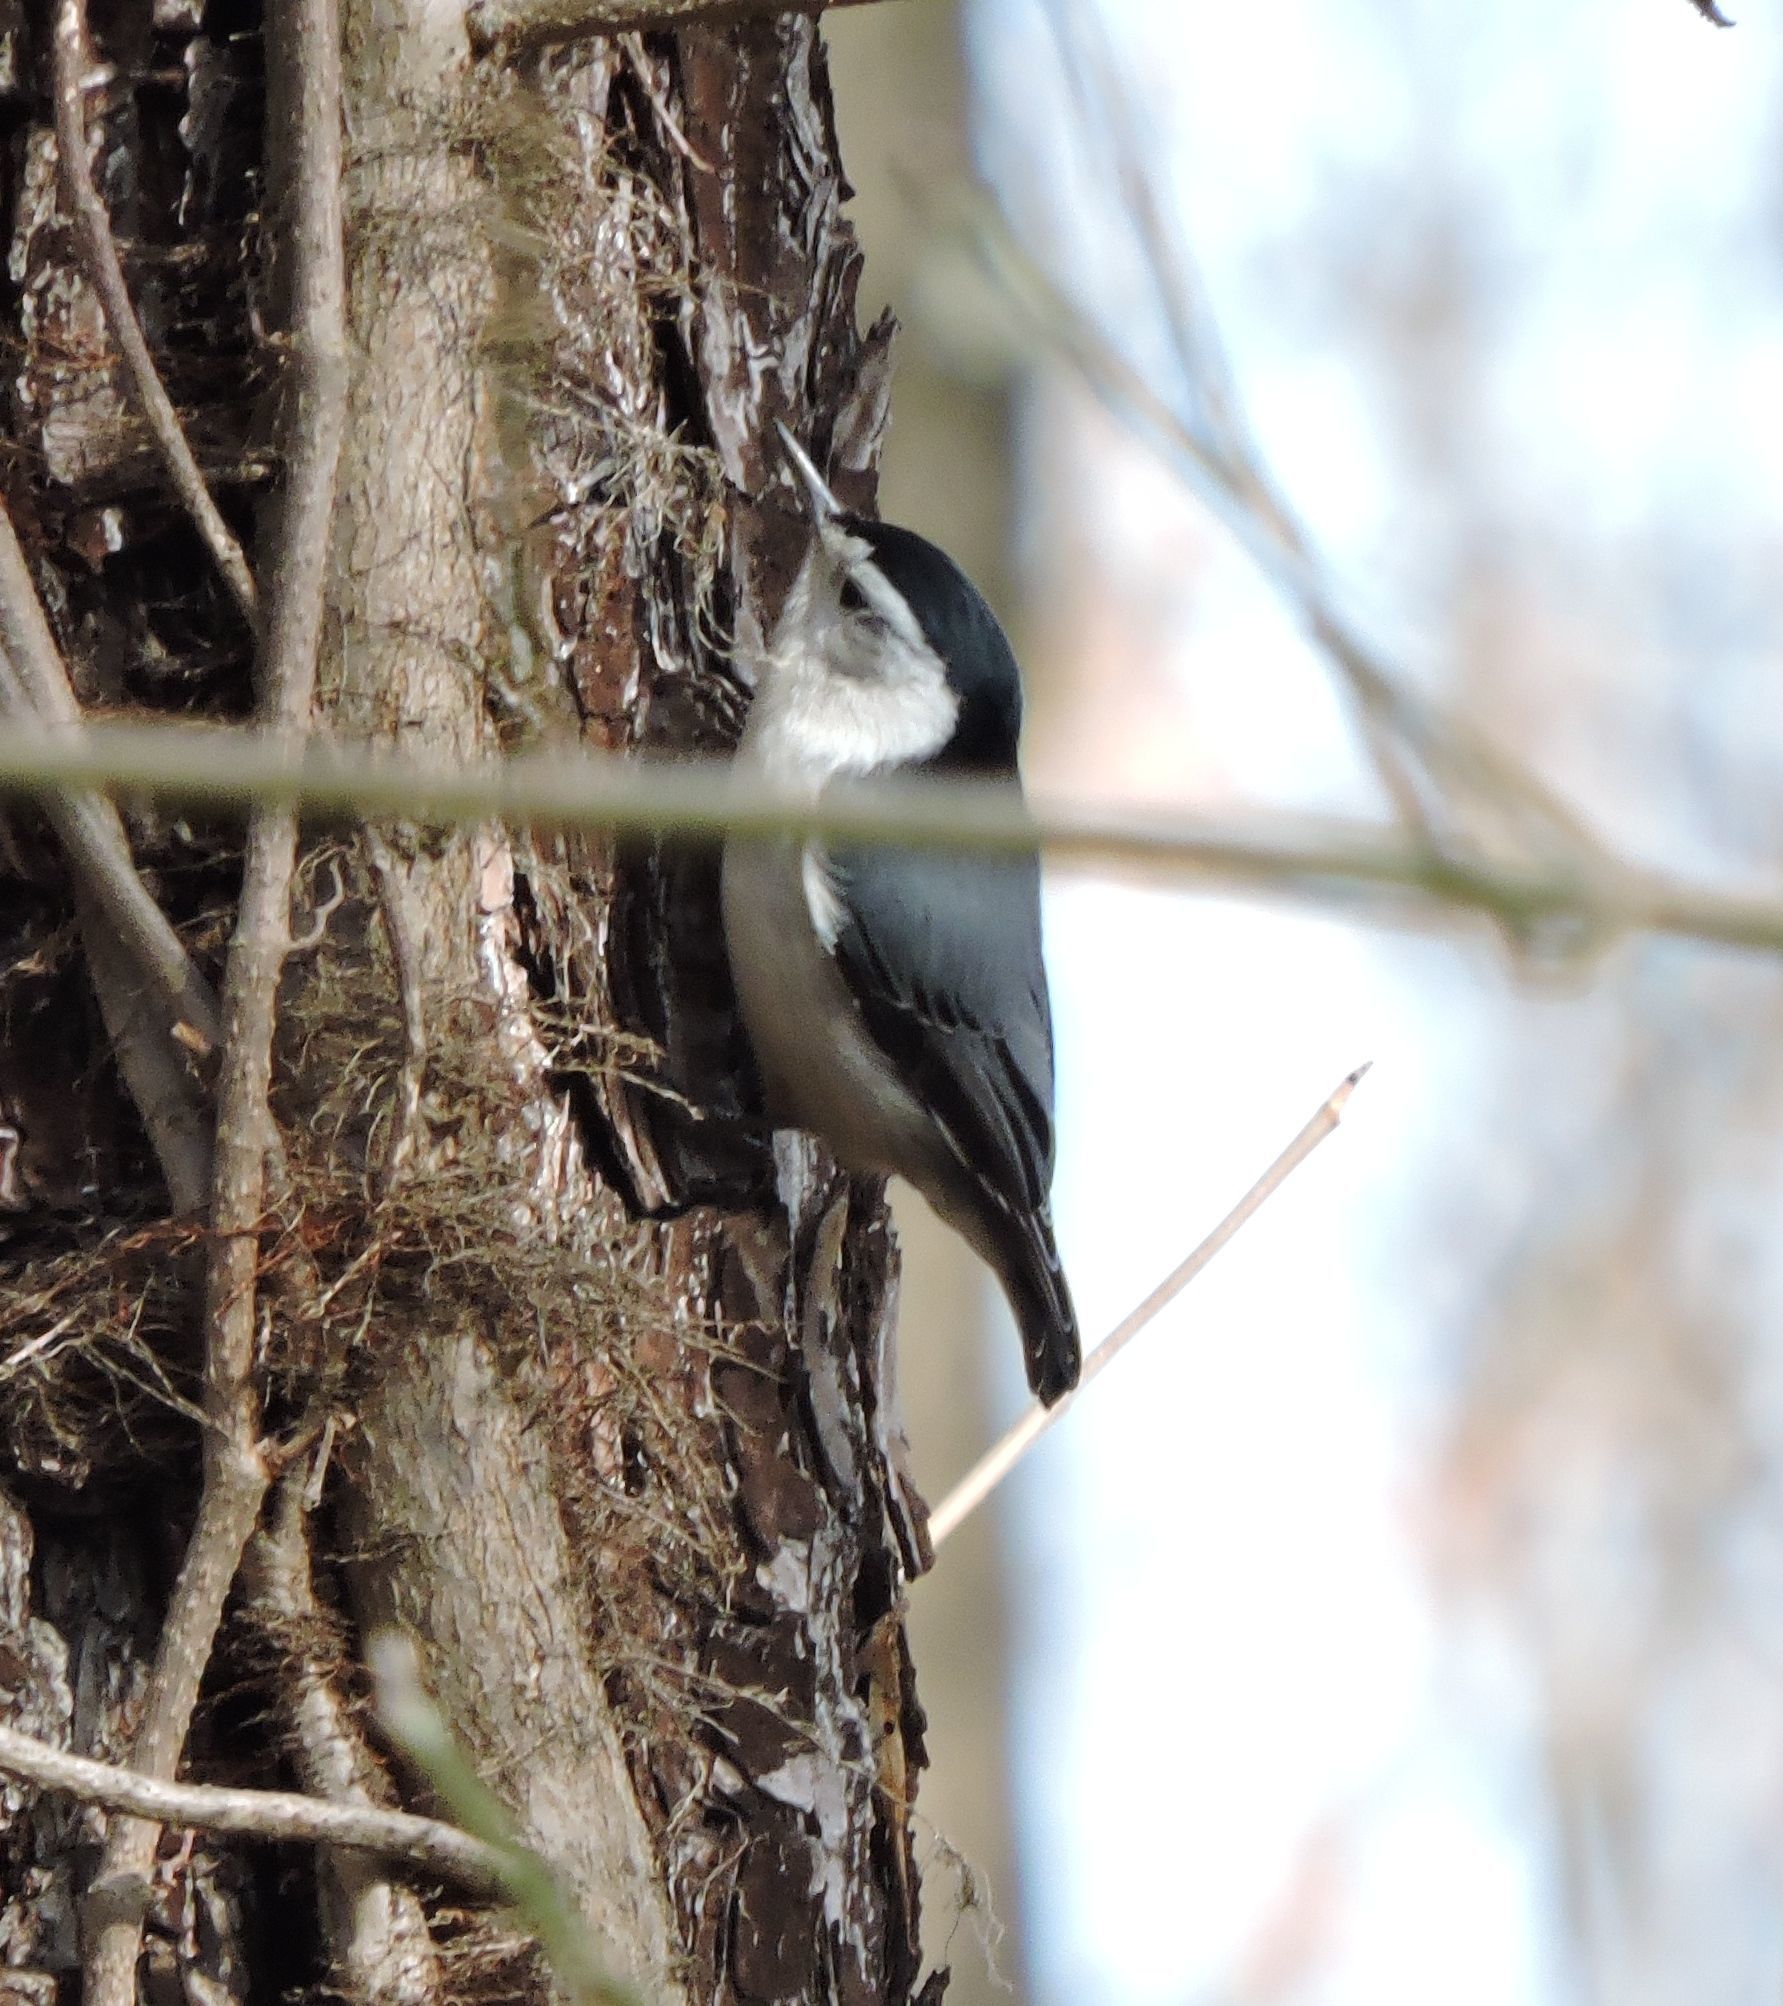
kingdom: Animalia
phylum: Chordata
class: Aves
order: Passeriformes
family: Sittidae
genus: Sitta
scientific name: Sitta carolinensis
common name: White-breasted nuthatch
